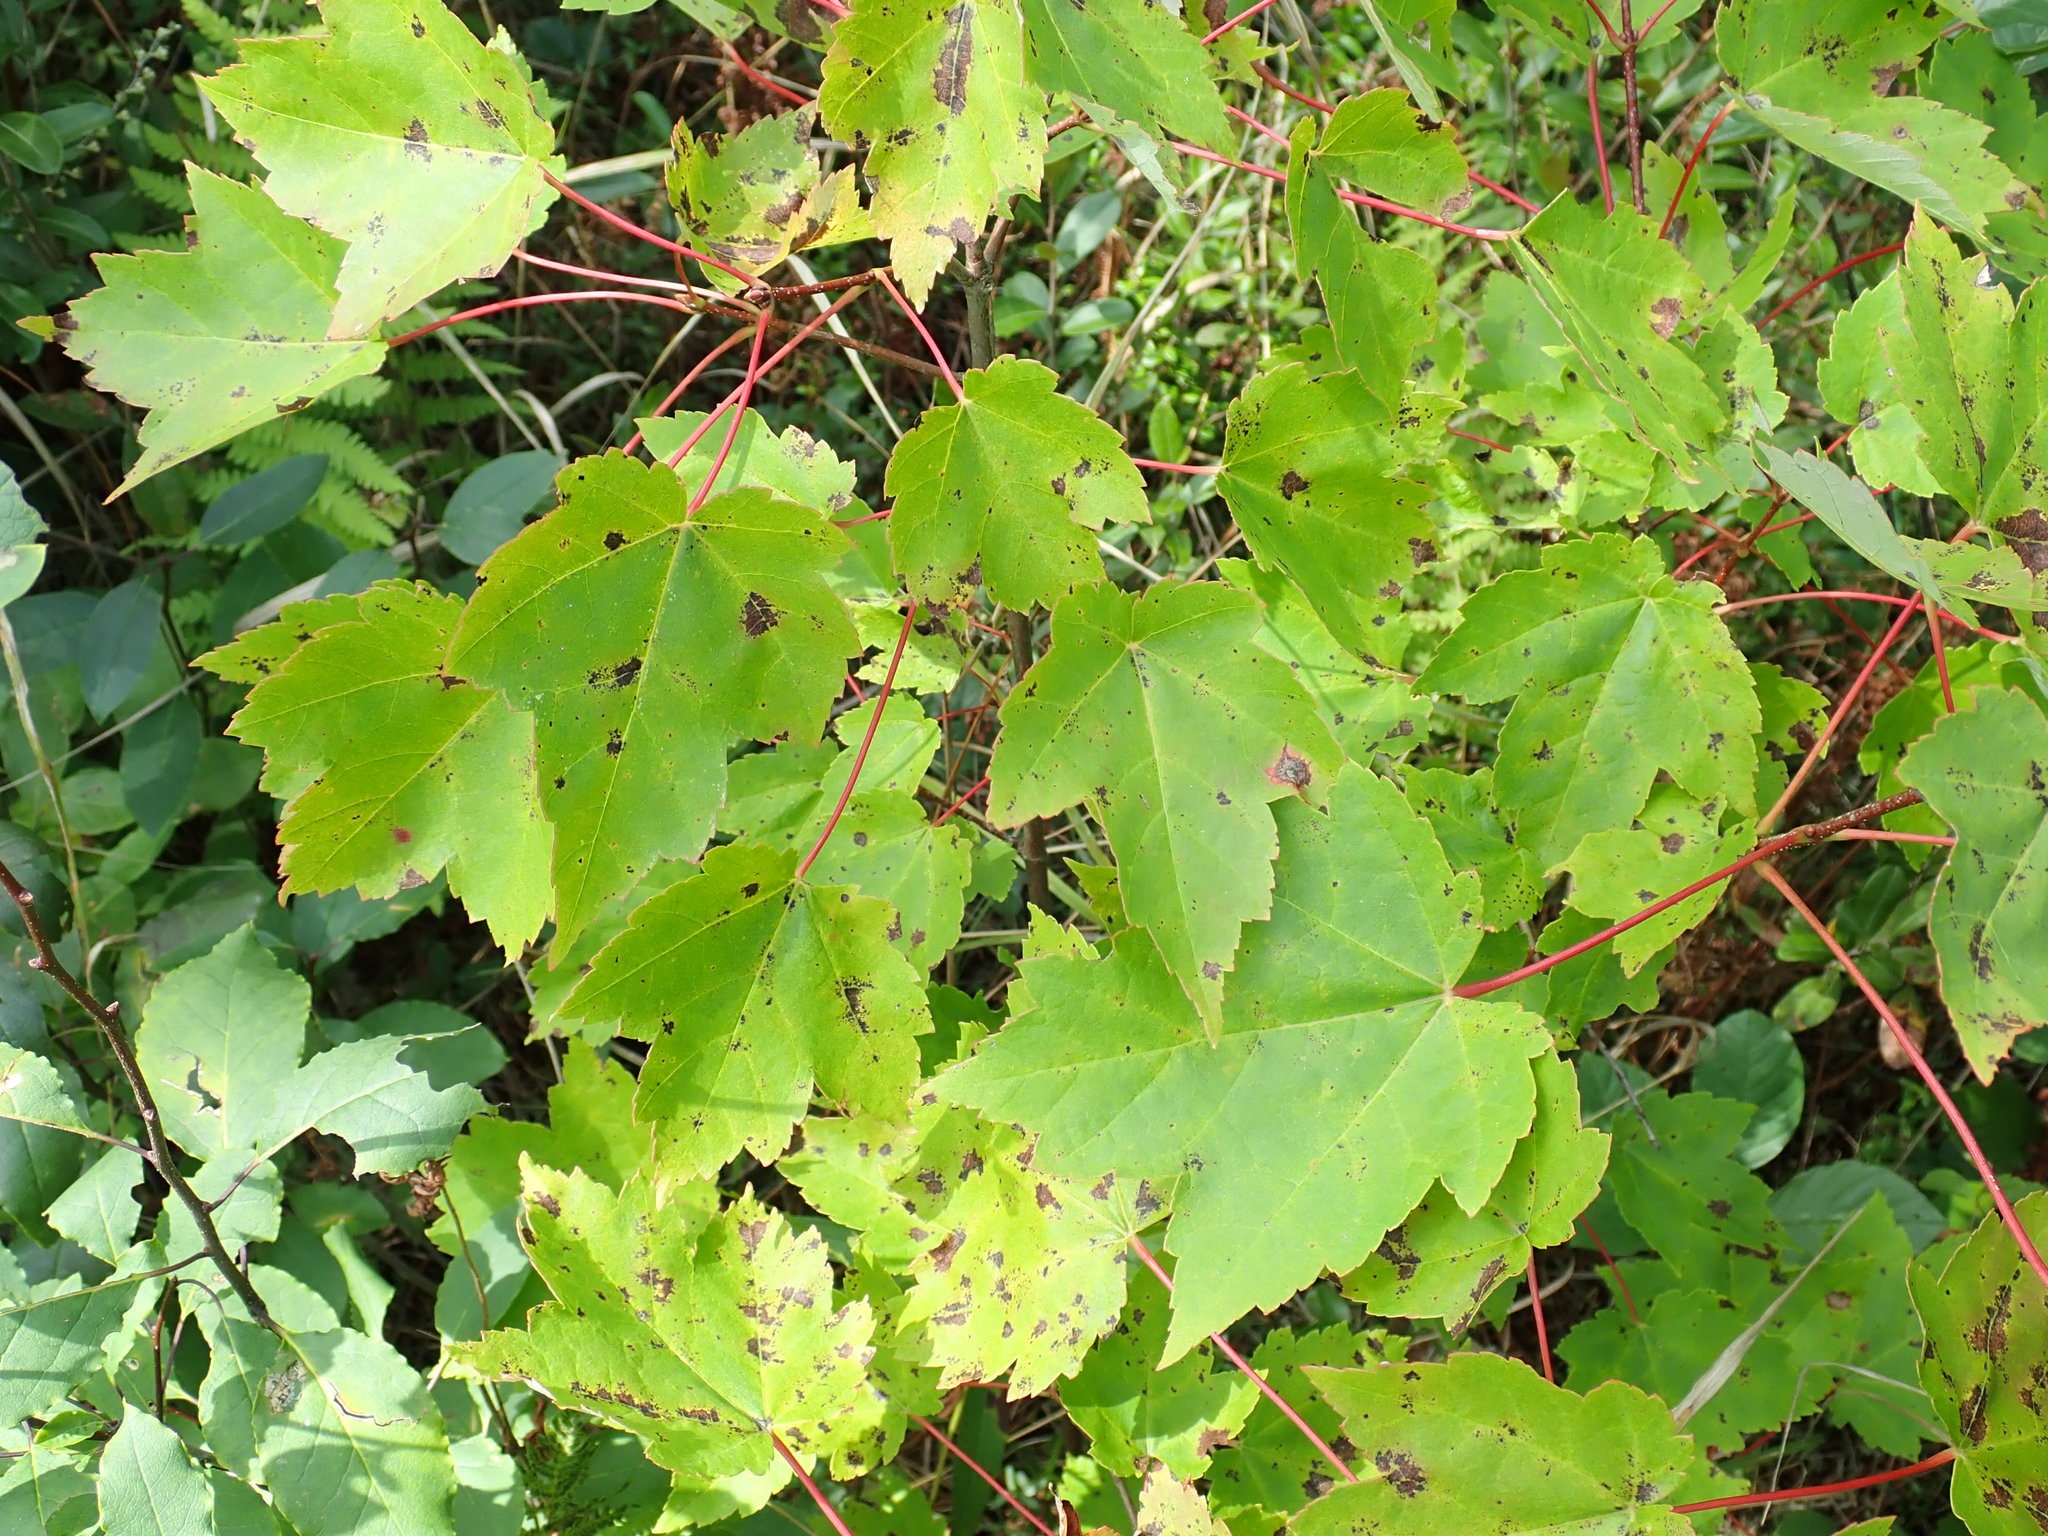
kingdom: Plantae
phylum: Tracheophyta
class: Magnoliopsida
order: Sapindales
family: Sapindaceae
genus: Acer
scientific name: Acer rubrum
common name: Red maple
